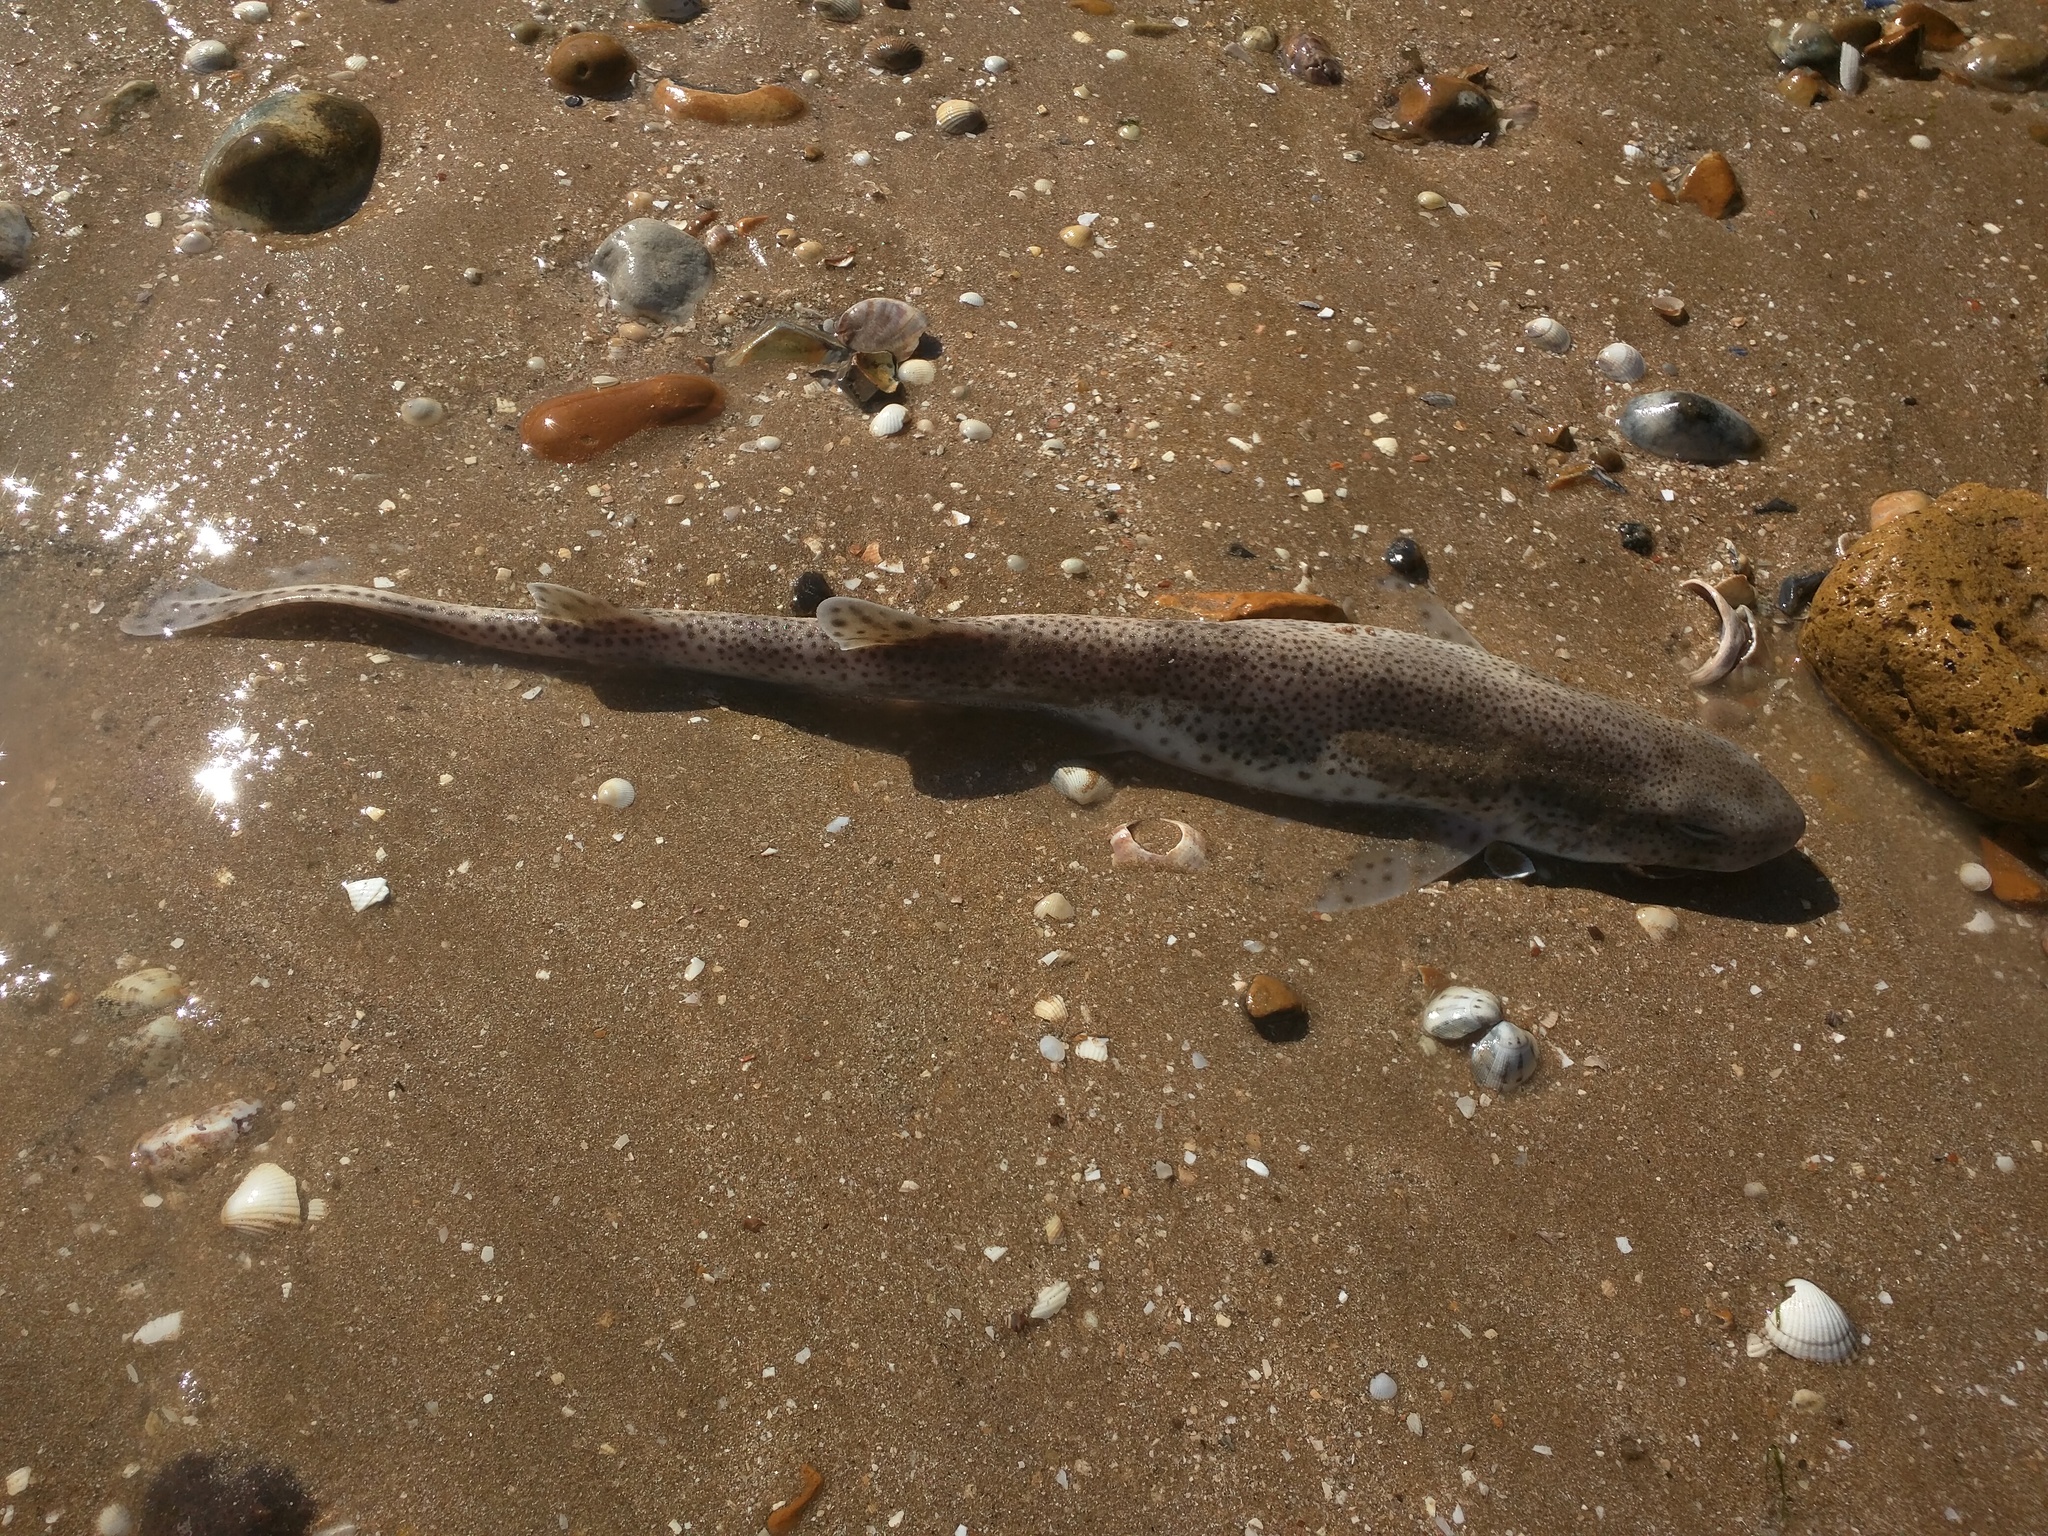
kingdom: Animalia
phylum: Chordata
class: Elasmobranchii
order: Carcharhiniformes
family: Scyliorhinidae
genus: Scyliorhinus
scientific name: Scyliorhinus canicula
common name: Lesser spotted dogfish
